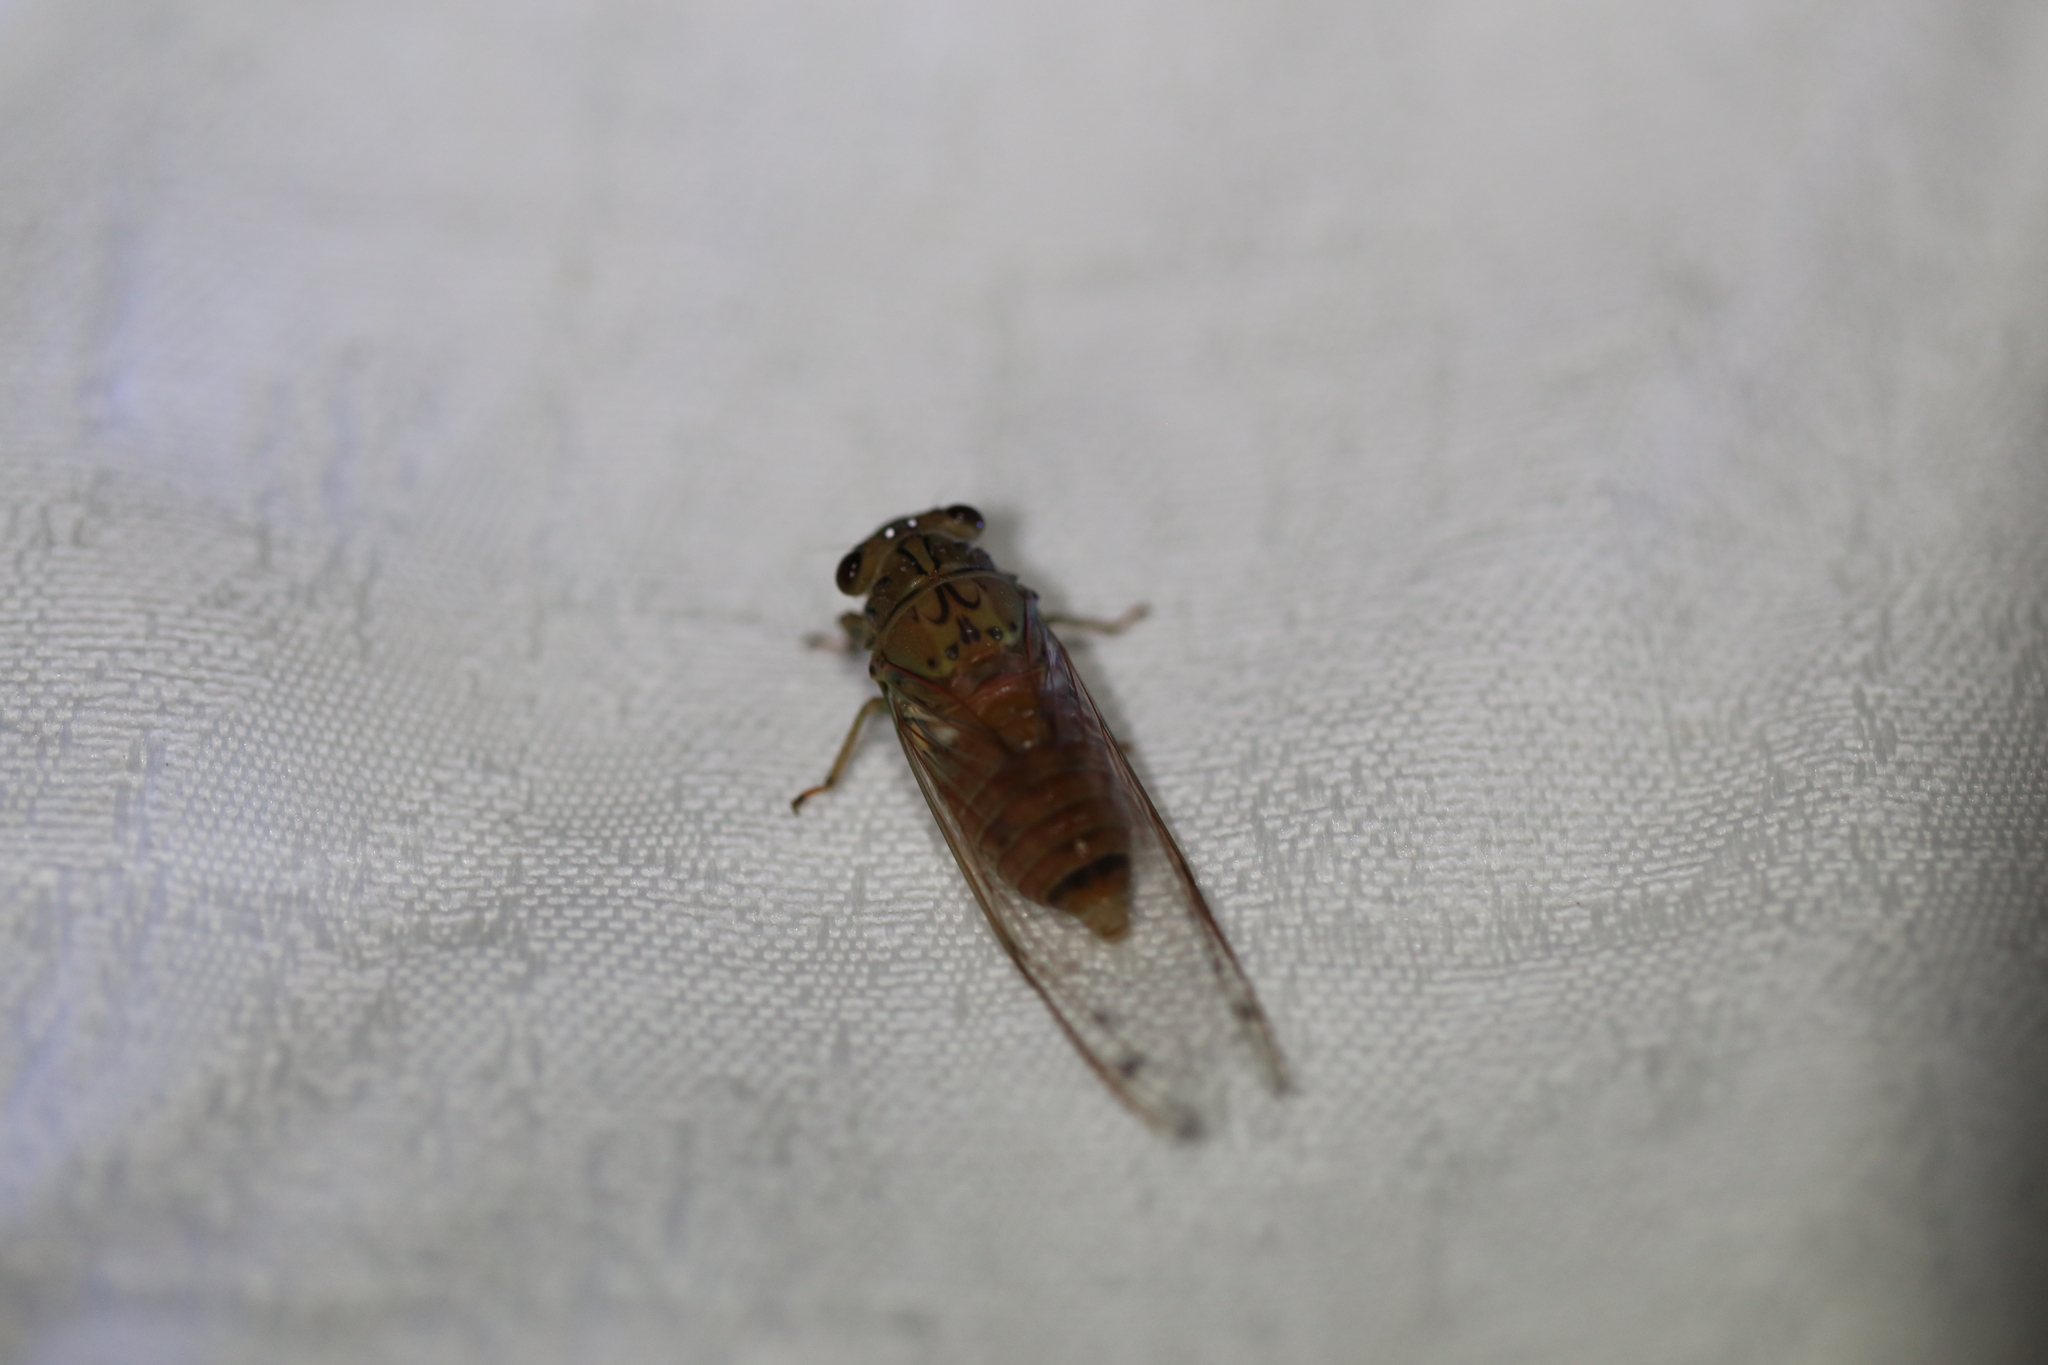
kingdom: Animalia
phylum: Arthropoda
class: Insecta
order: Hemiptera
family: Cicadidae
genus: Tamasa
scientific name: Tamasa tristigma
